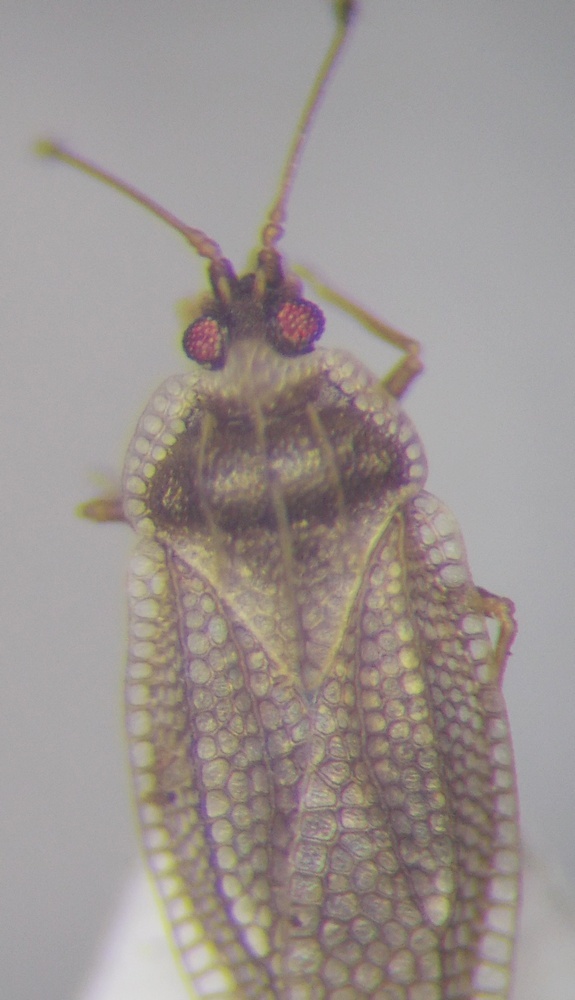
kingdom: Animalia
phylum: Arthropoda
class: Insecta
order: Hemiptera
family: Tingidae
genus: Acalypta
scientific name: Acalypta gracilis
